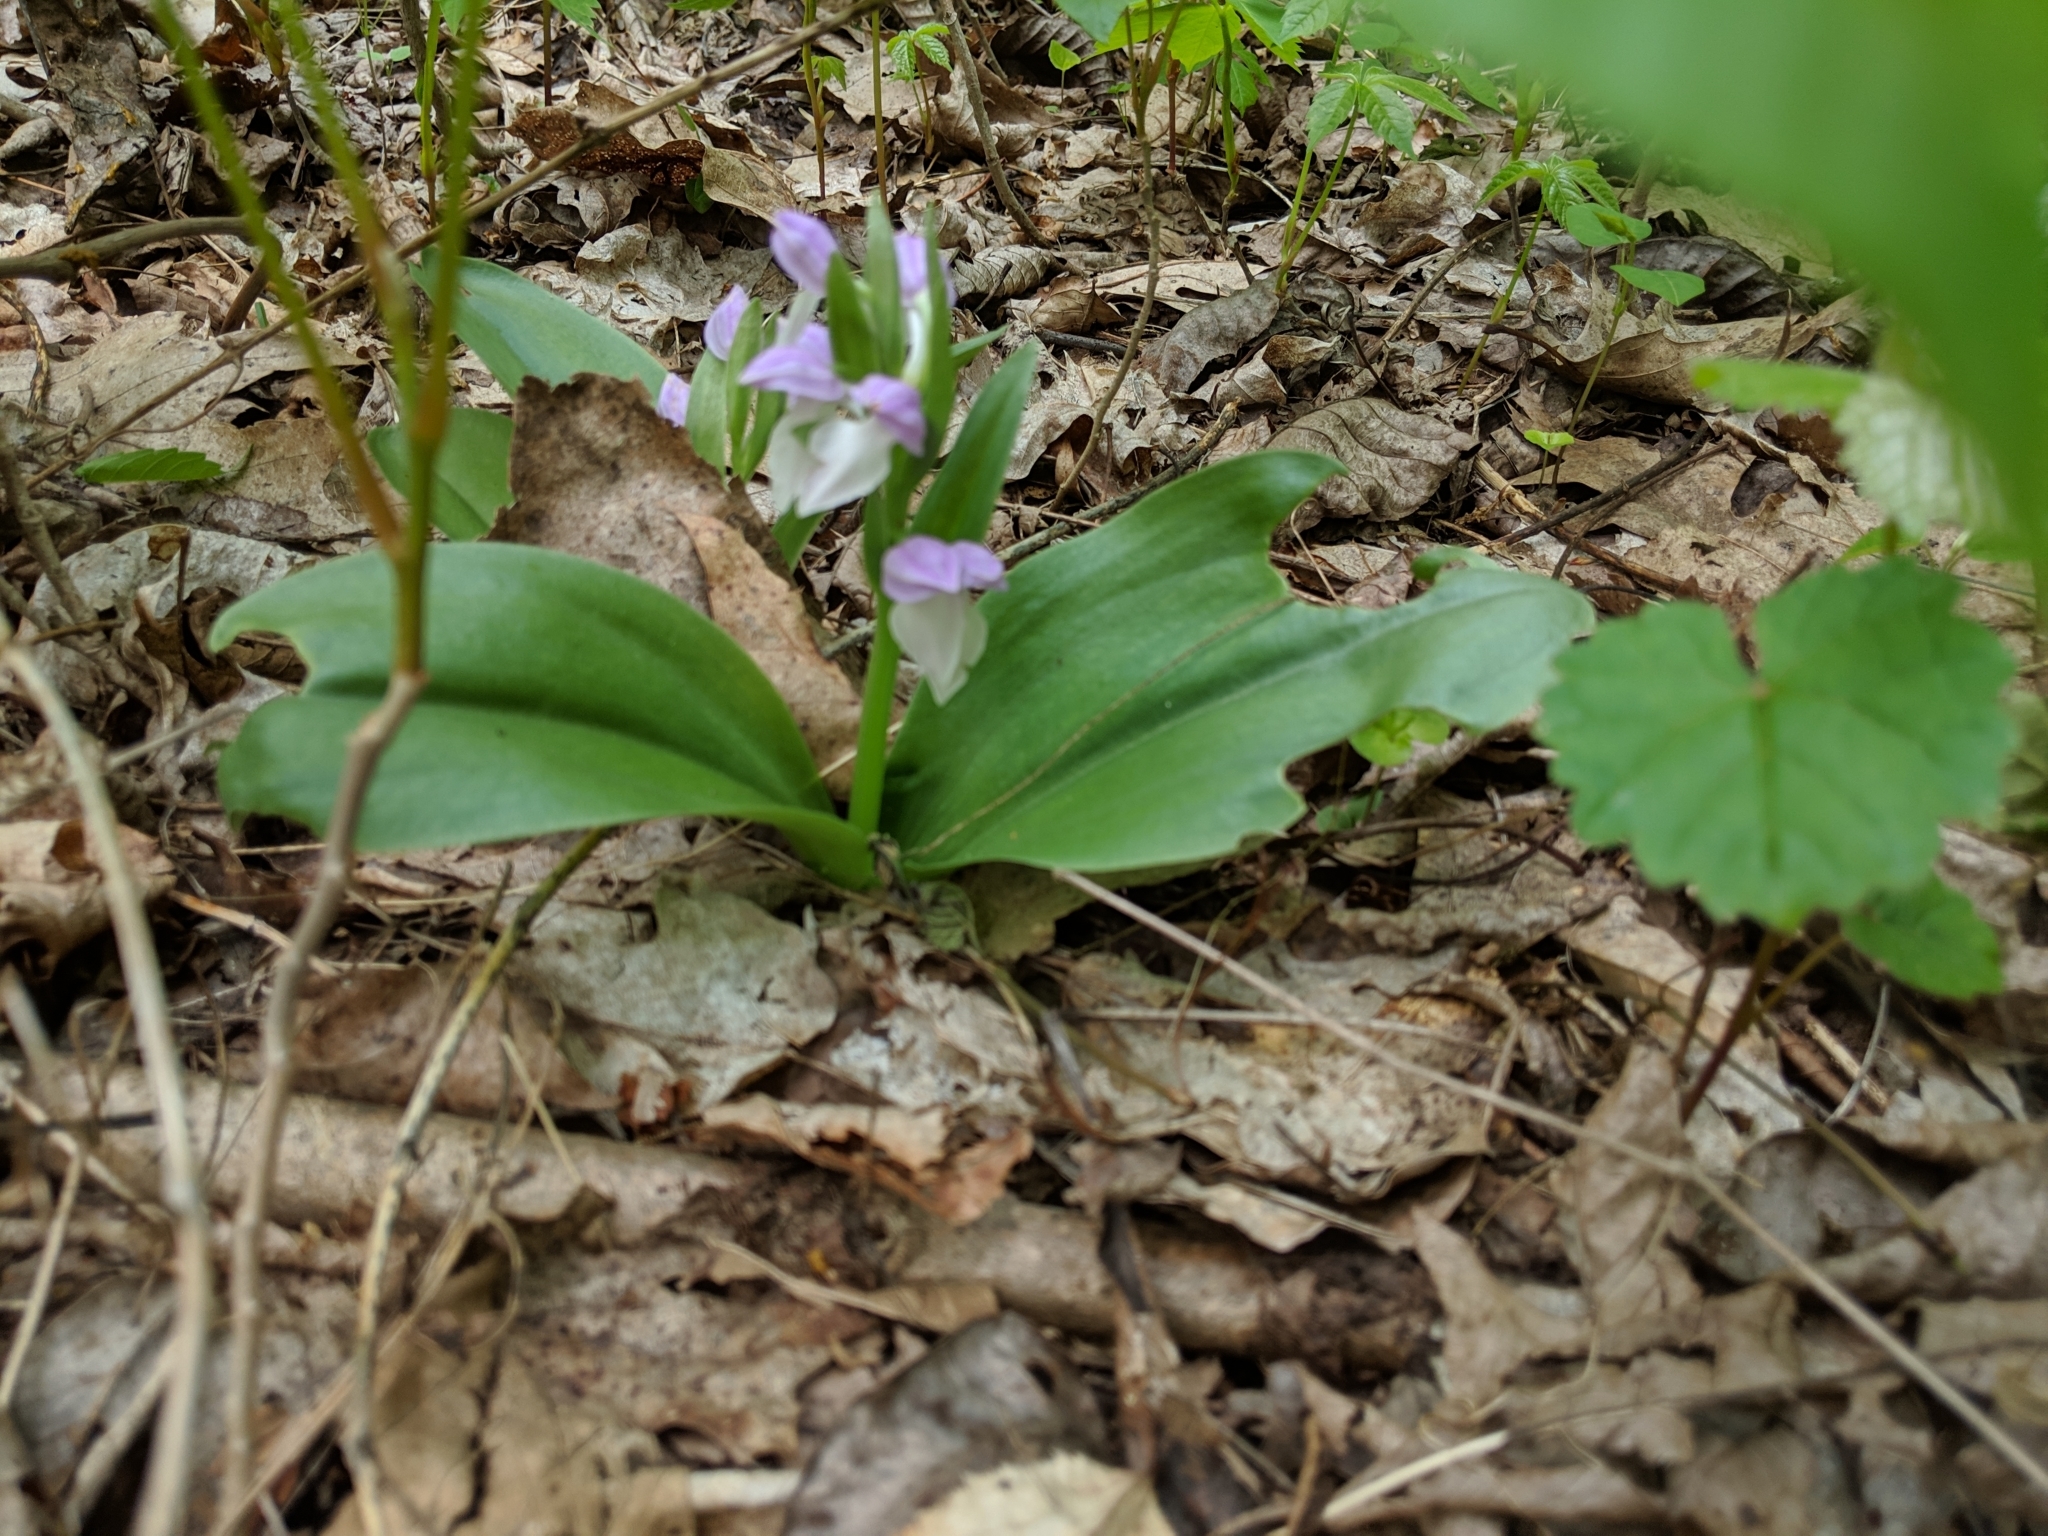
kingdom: Plantae
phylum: Tracheophyta
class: Liliopsida
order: Asparagales
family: Orchidaceae
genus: Galearis
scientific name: Galearis spectabilis
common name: Purple-hooded orchis
